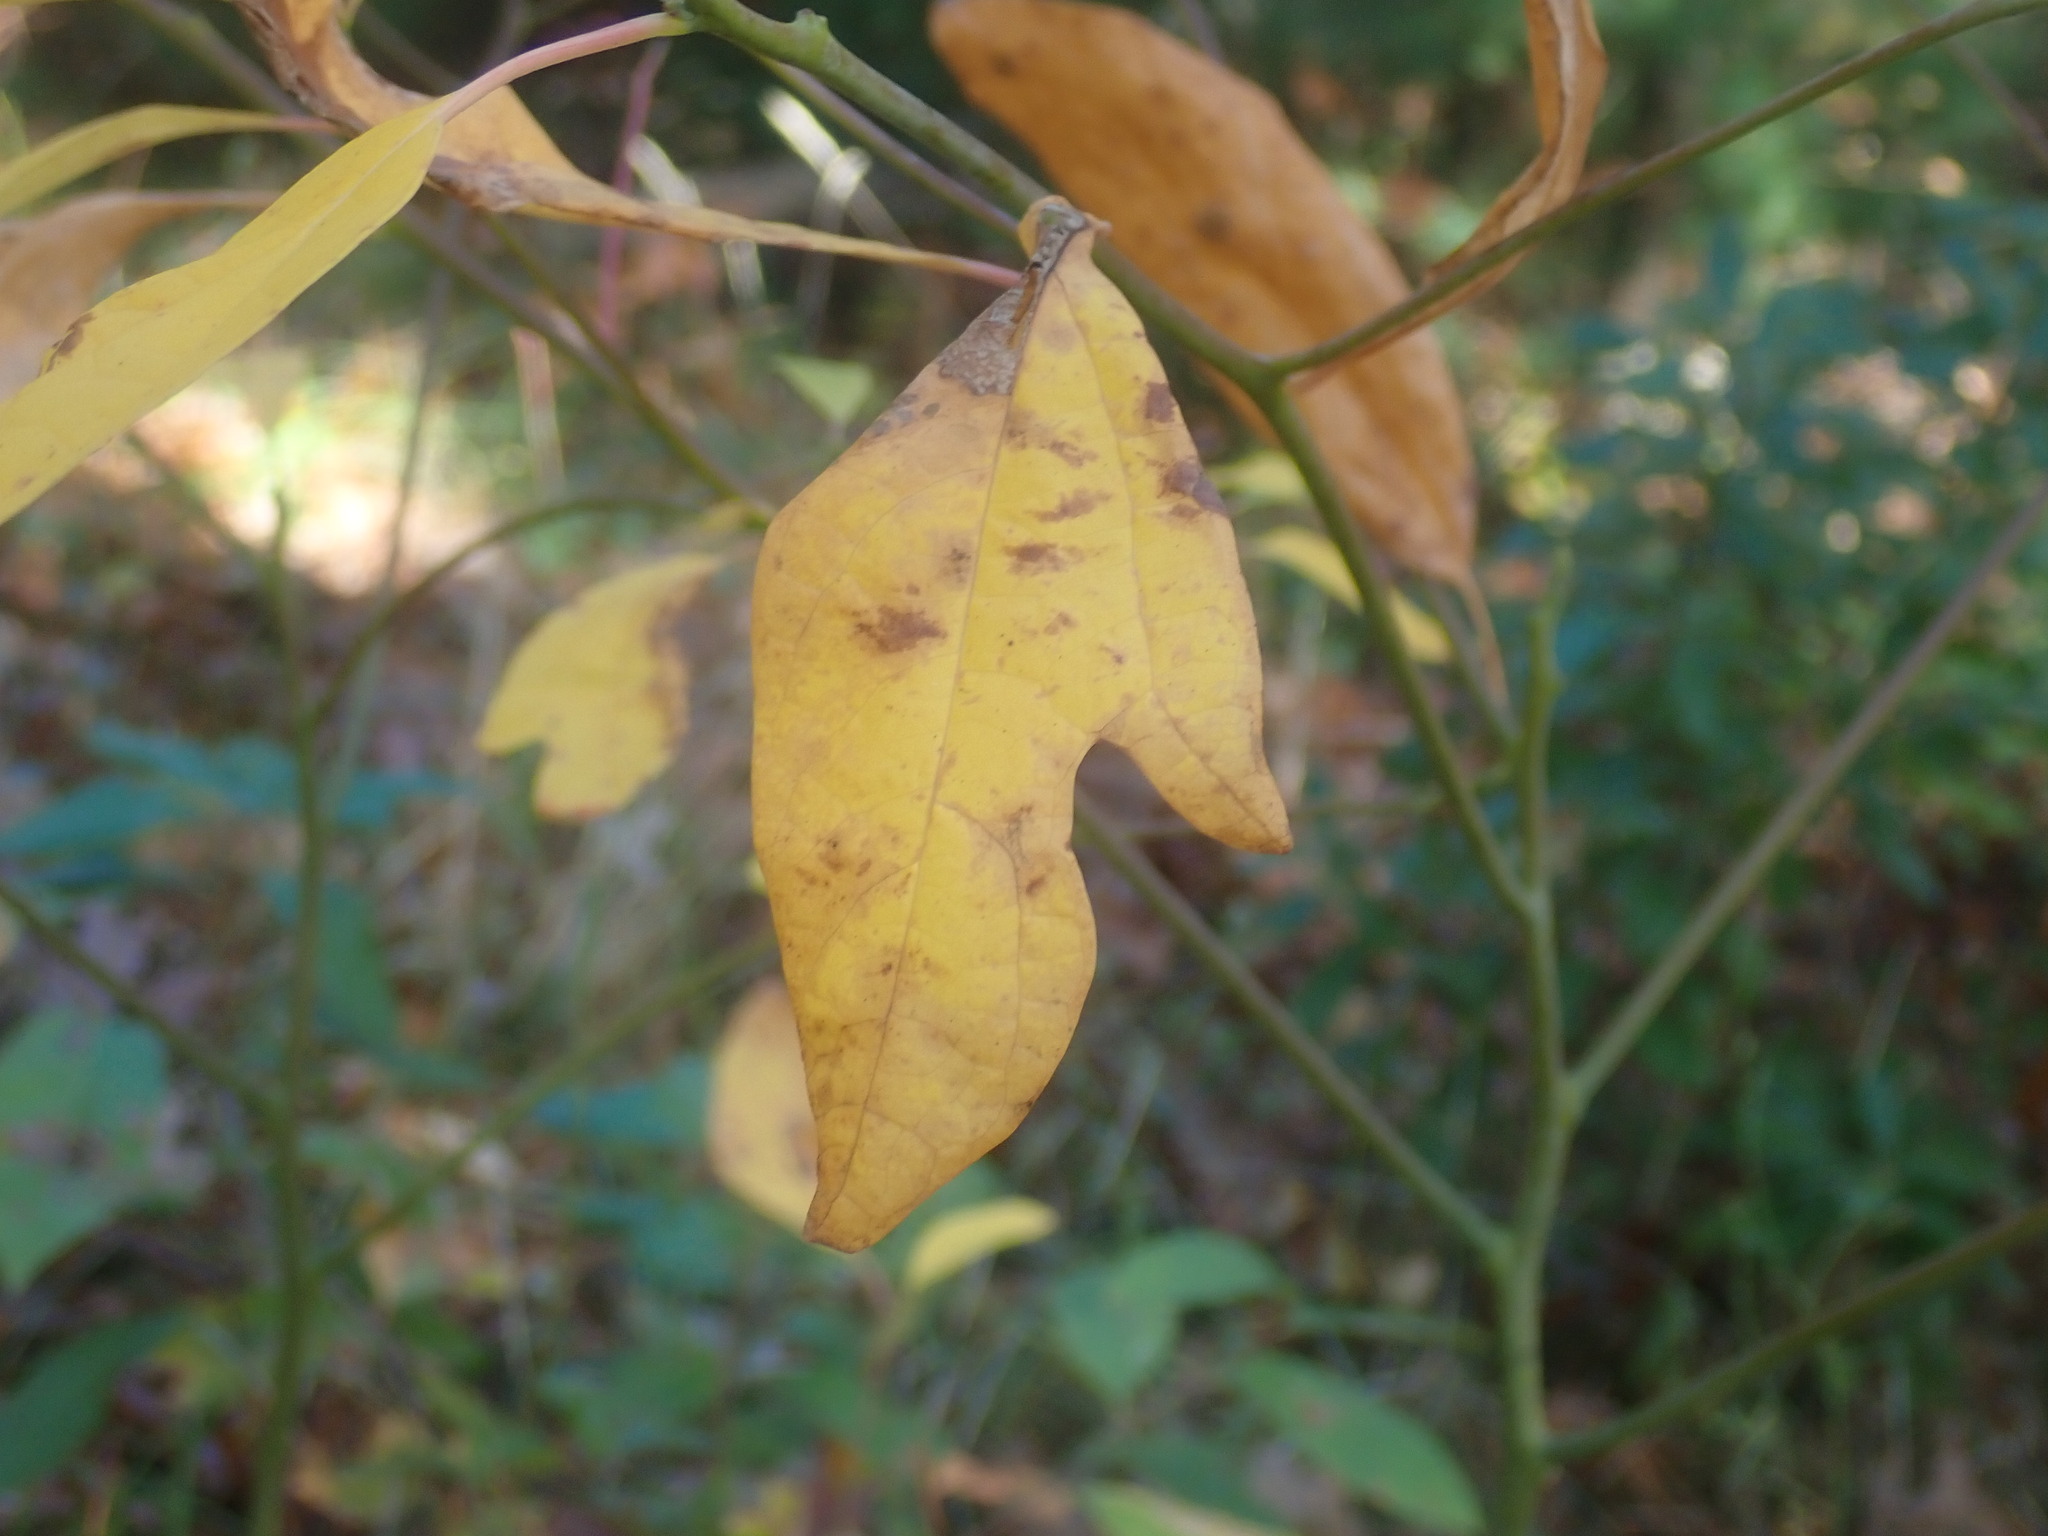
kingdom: Plantae
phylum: Tracheophyta
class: Magnoliopsida
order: Laurales
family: Lauraceae
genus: Sassafras
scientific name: Sassafras albidum
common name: Sassafras
